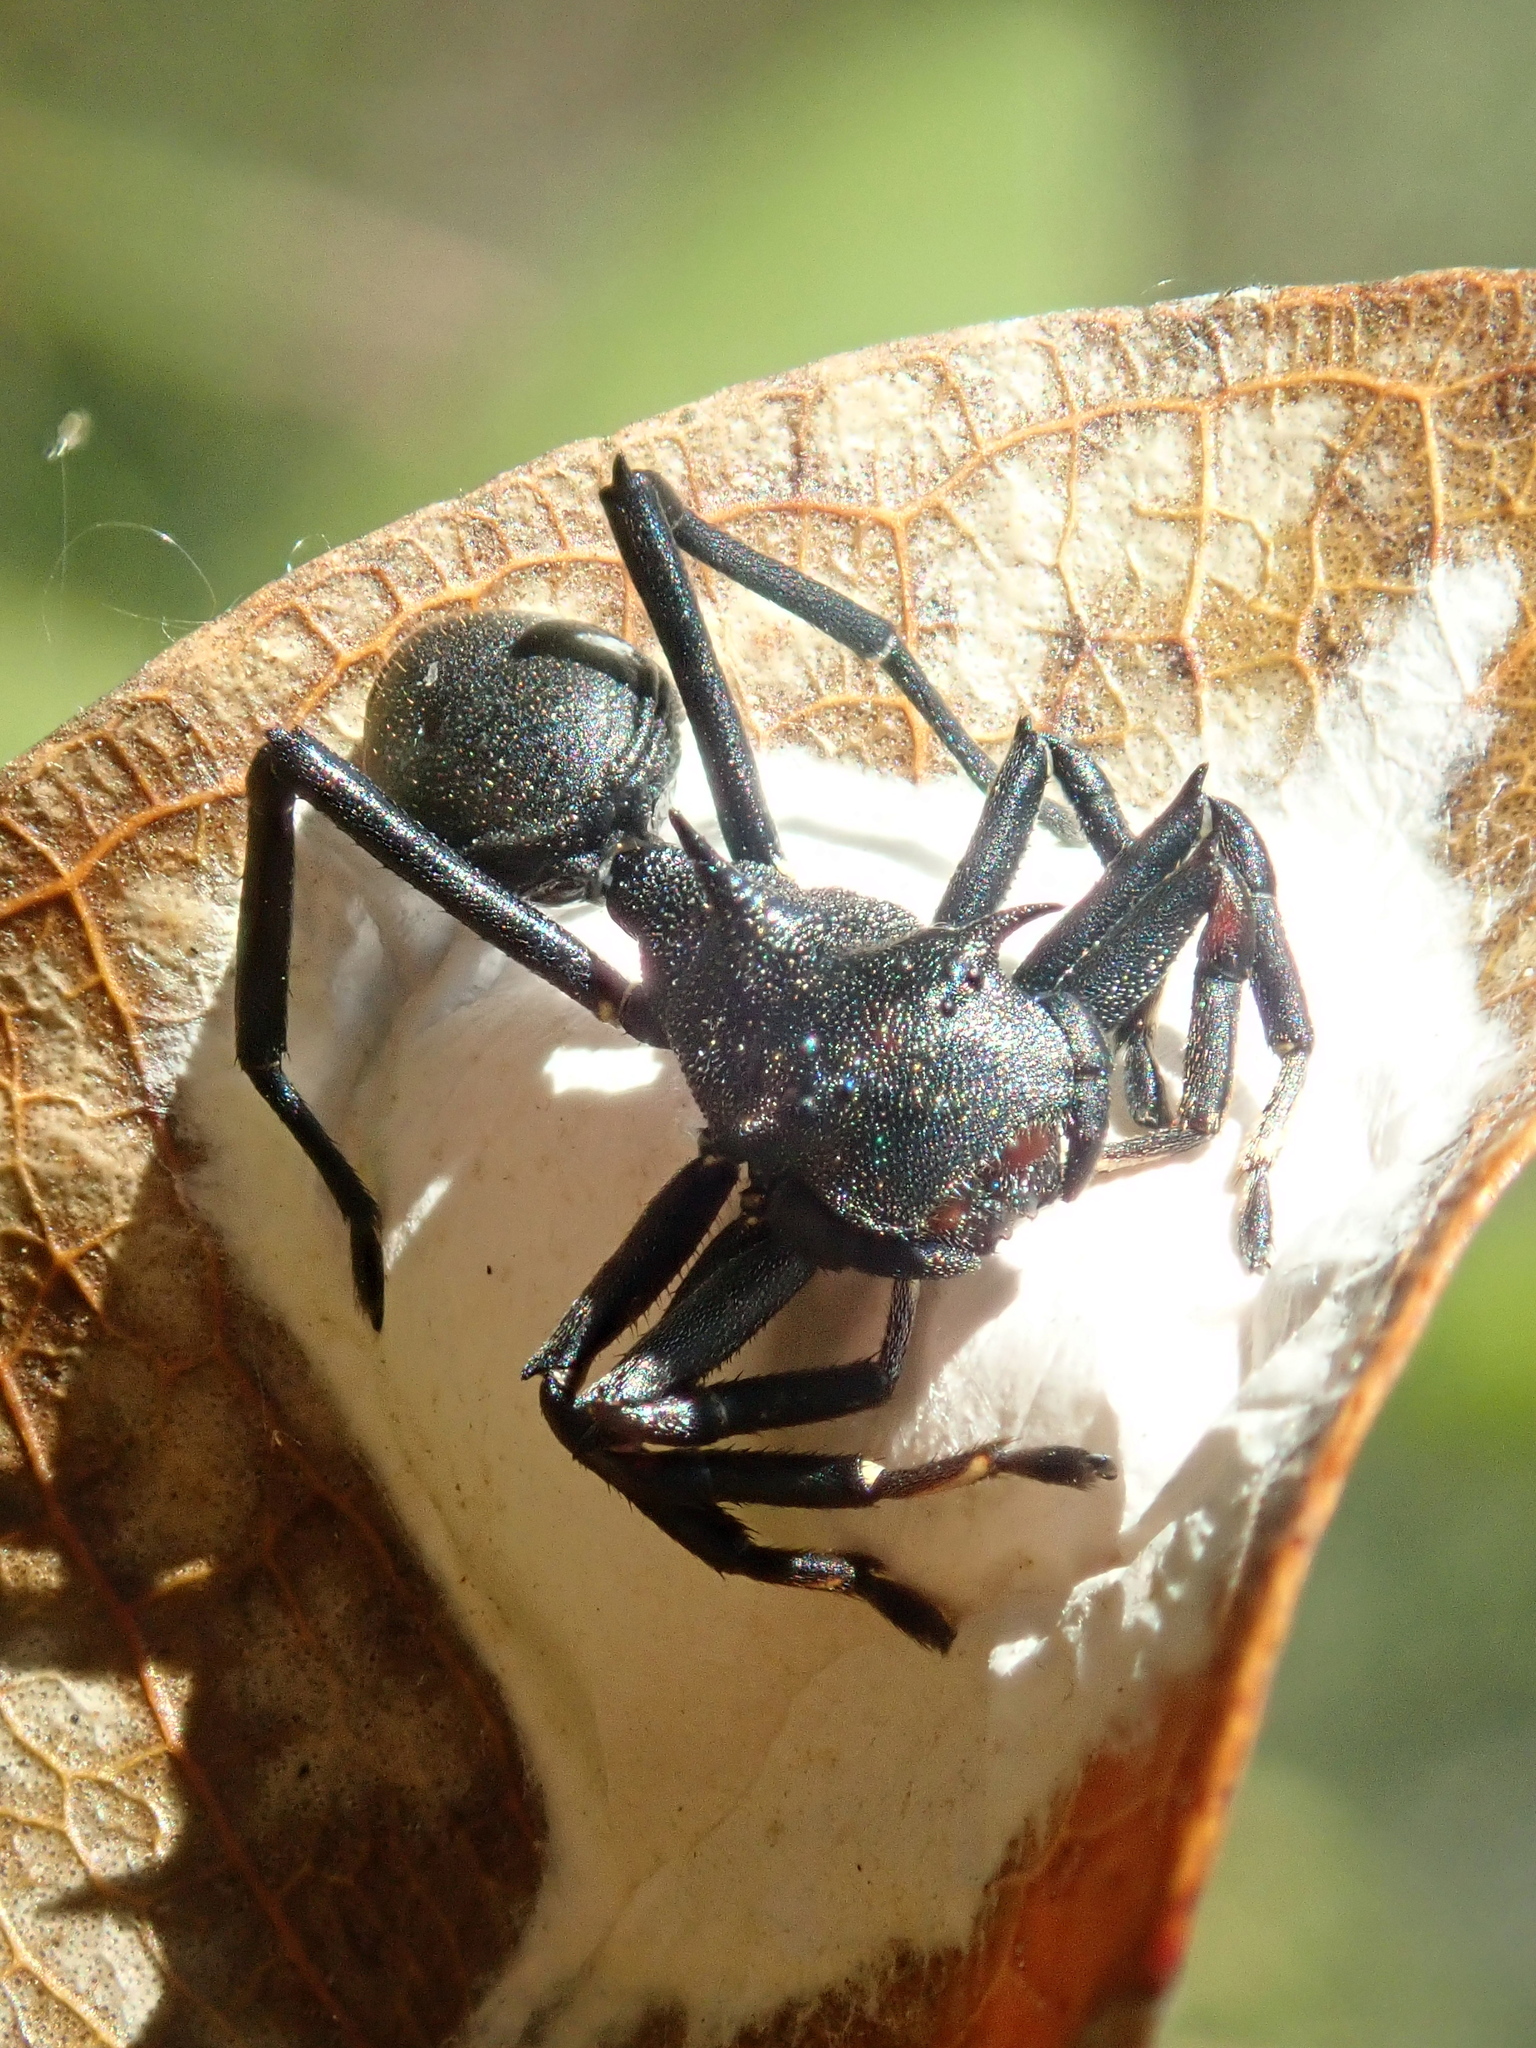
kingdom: Animalia
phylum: Arthropoda
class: Arachnida
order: Araneae
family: Thomisidae
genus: Aphantochilus
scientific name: Aphantochilus rogersi
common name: Crab spiders
